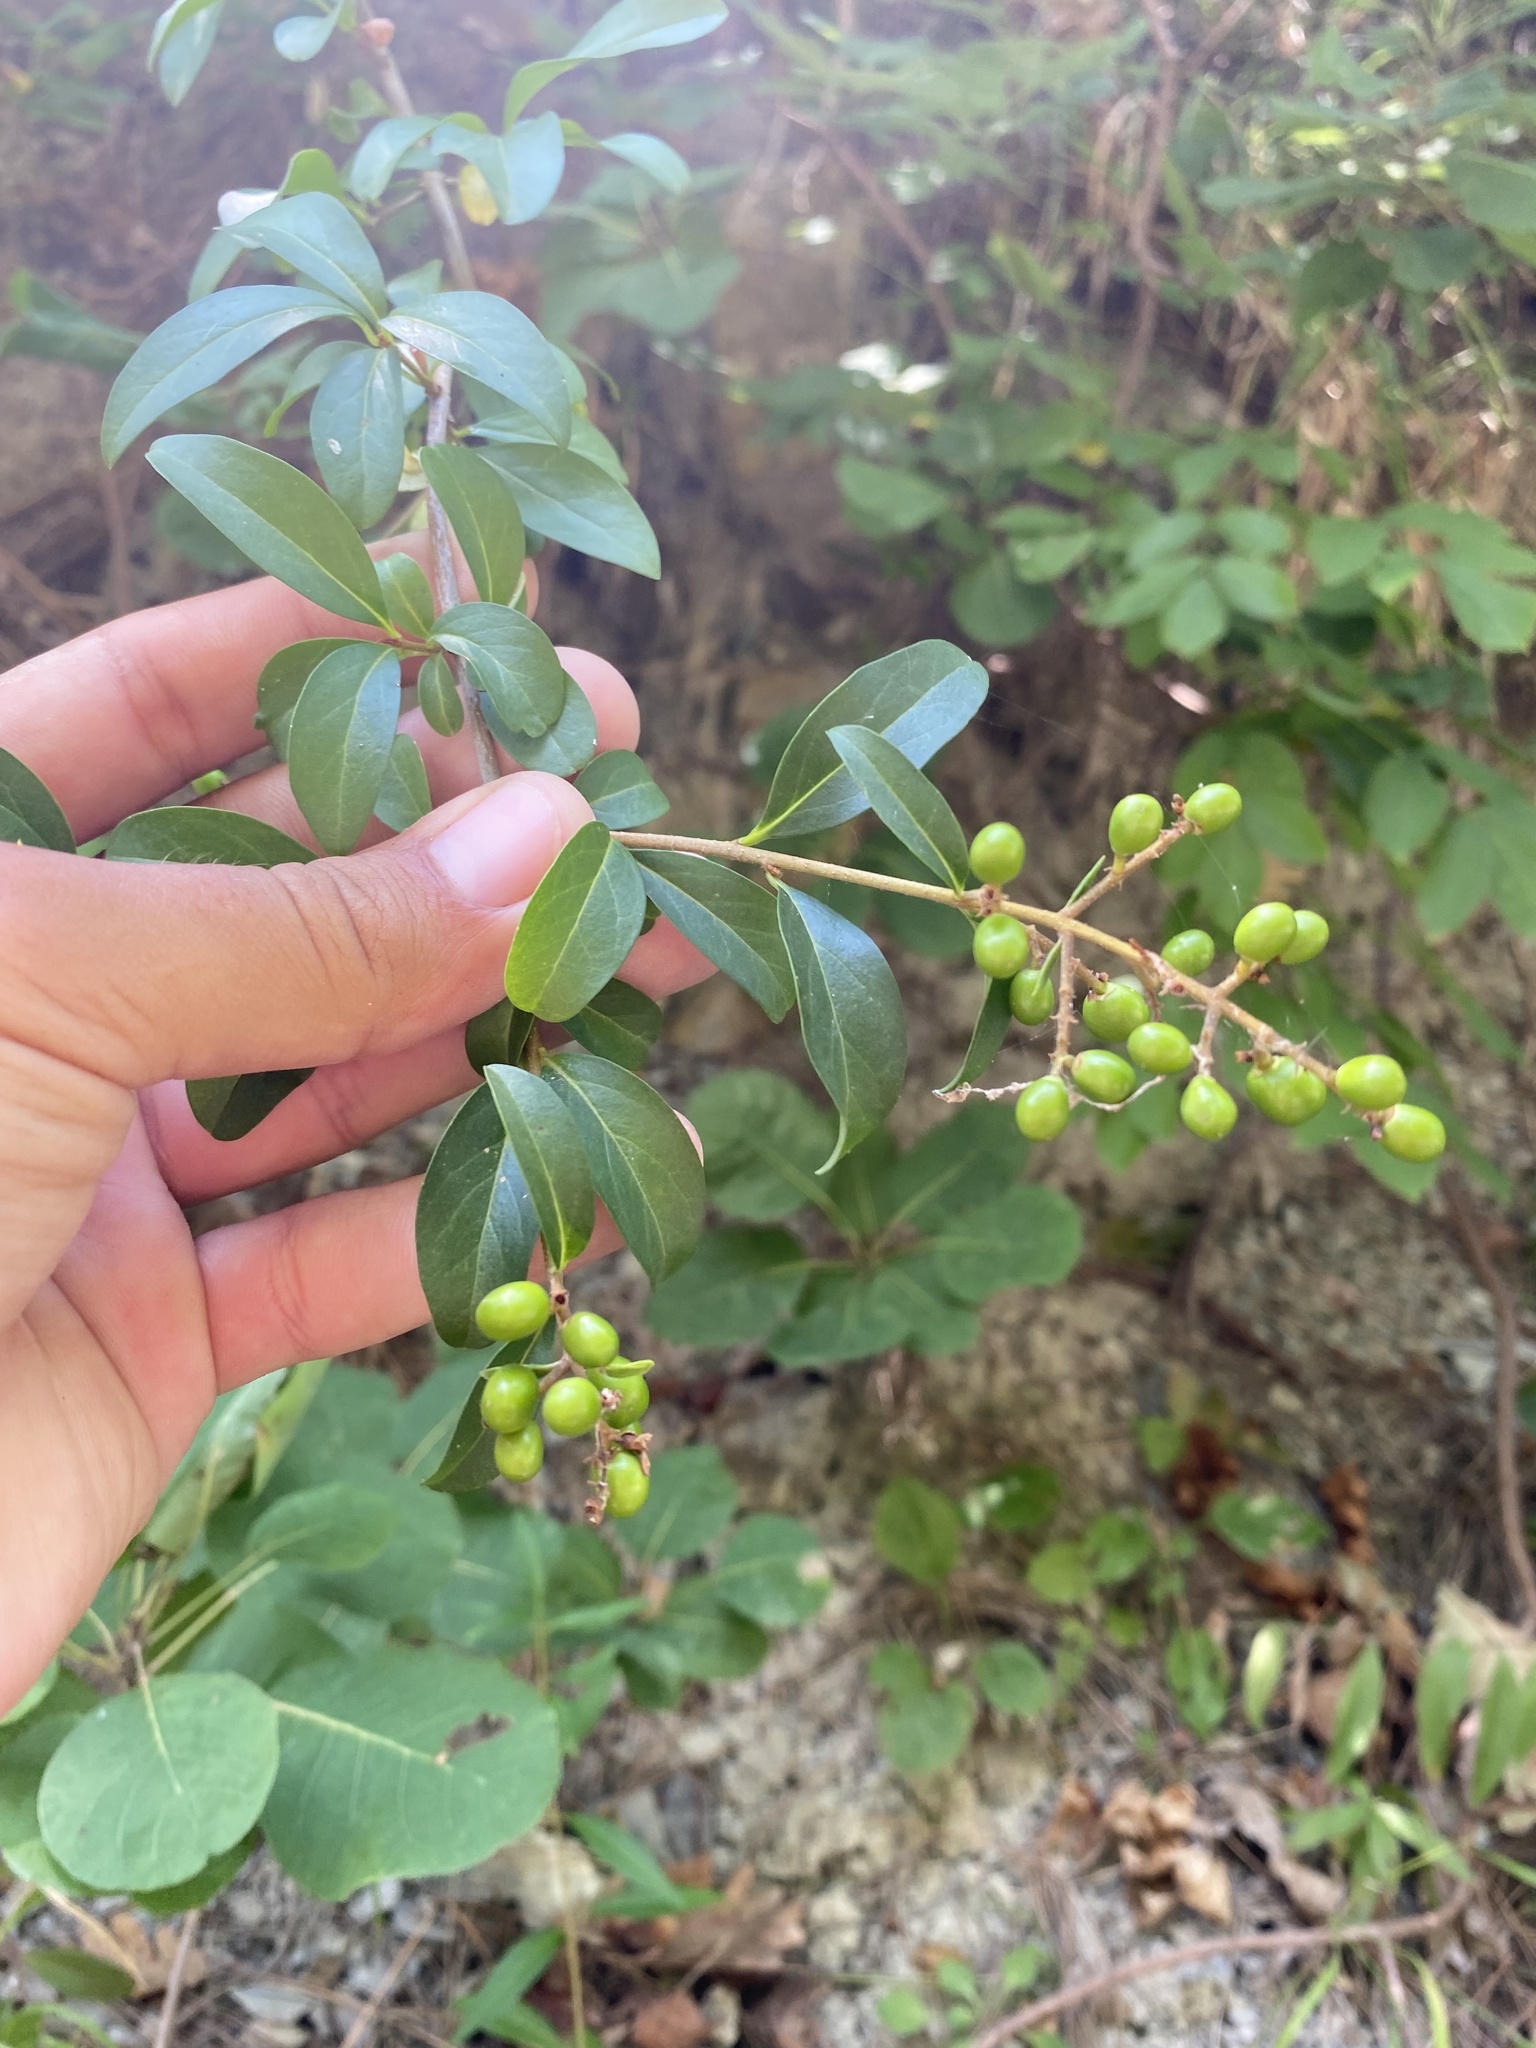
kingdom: Plantae
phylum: Tracheophyta
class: Magnoliopsida
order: Lamiales
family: Oleaceae
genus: Ligustrum
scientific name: Ligustrum vulgare
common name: Wild privet
